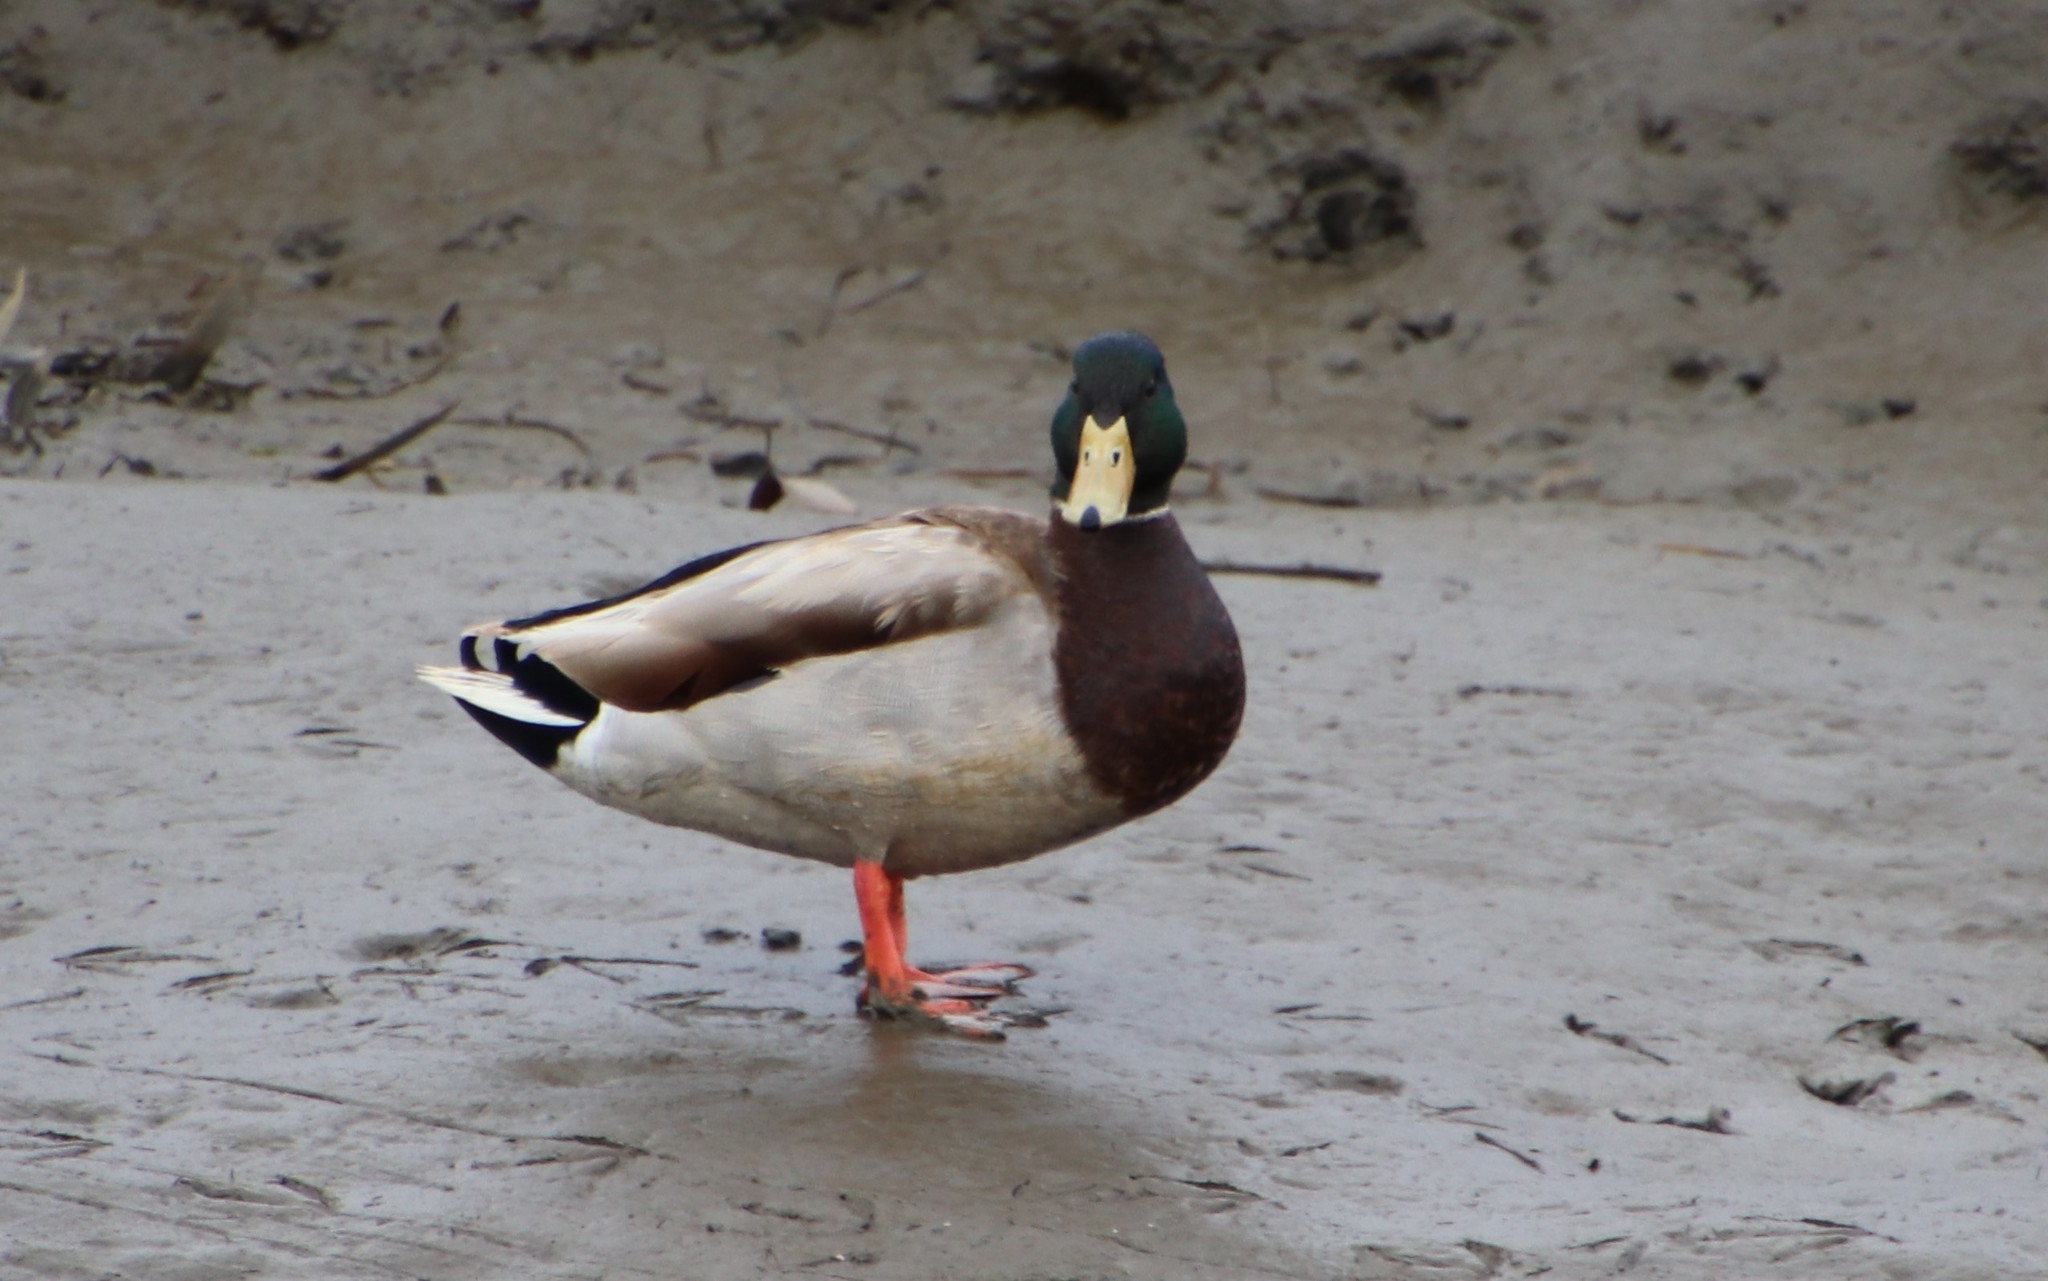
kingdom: Animalia
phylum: Chordata
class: Aves
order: Anseriformes
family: Anatidae
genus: Anas
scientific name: Anas platyrhynchos
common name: Mallard
